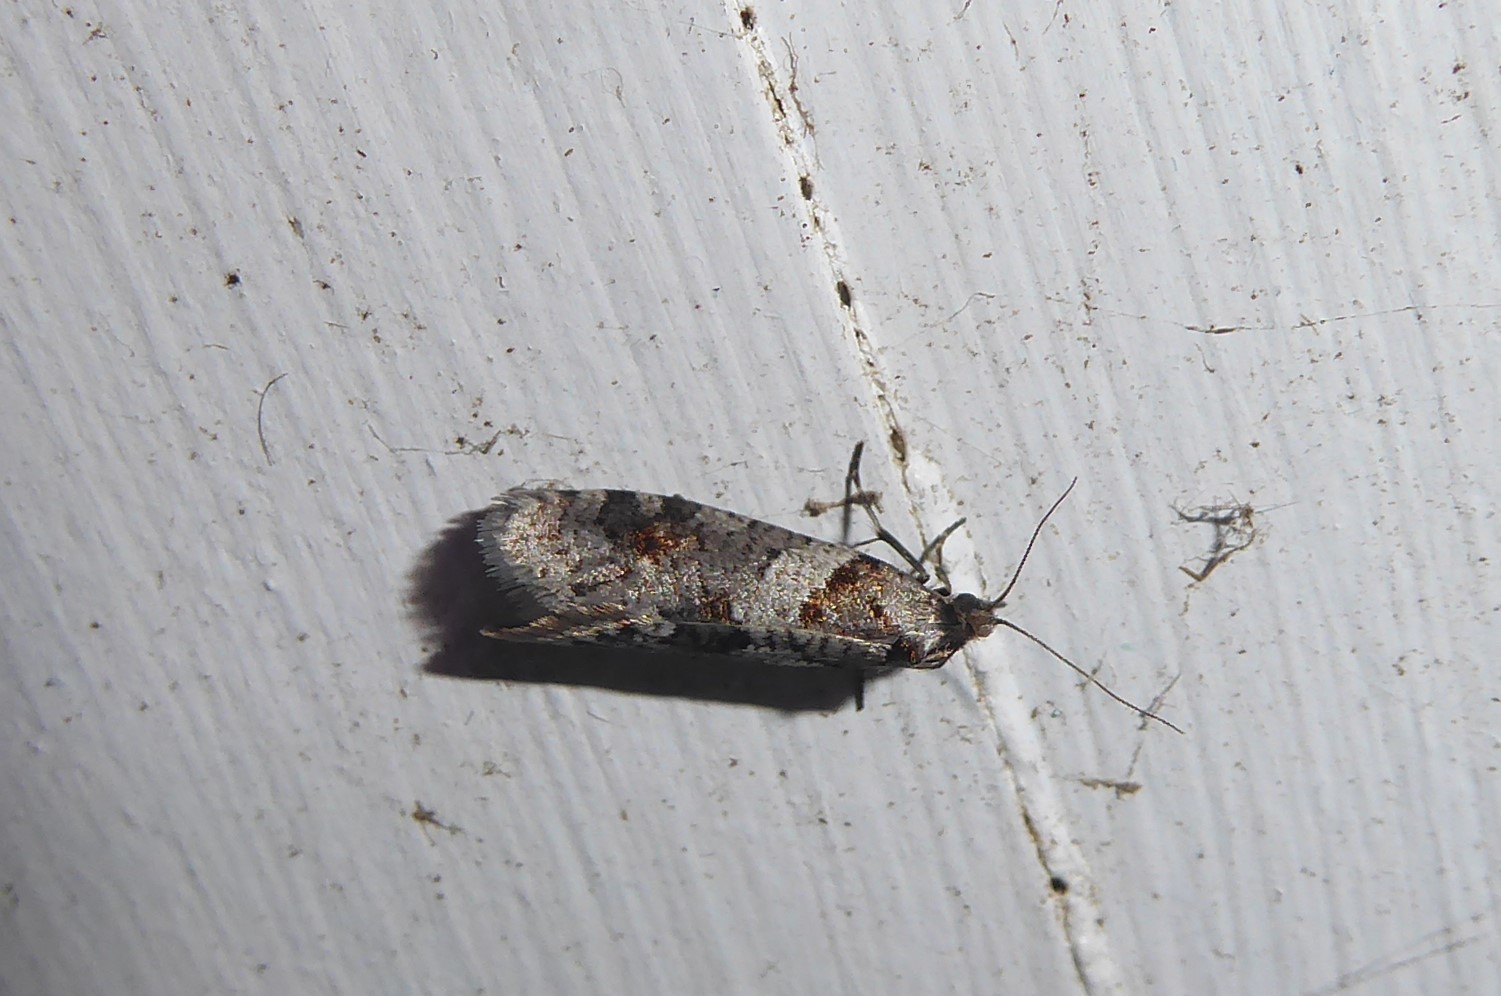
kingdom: Animalia
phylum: Arthropoda
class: Insecta
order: Lepidoptera
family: Psychidae
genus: Lepidoscia
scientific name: Lepidoscia heliochares
